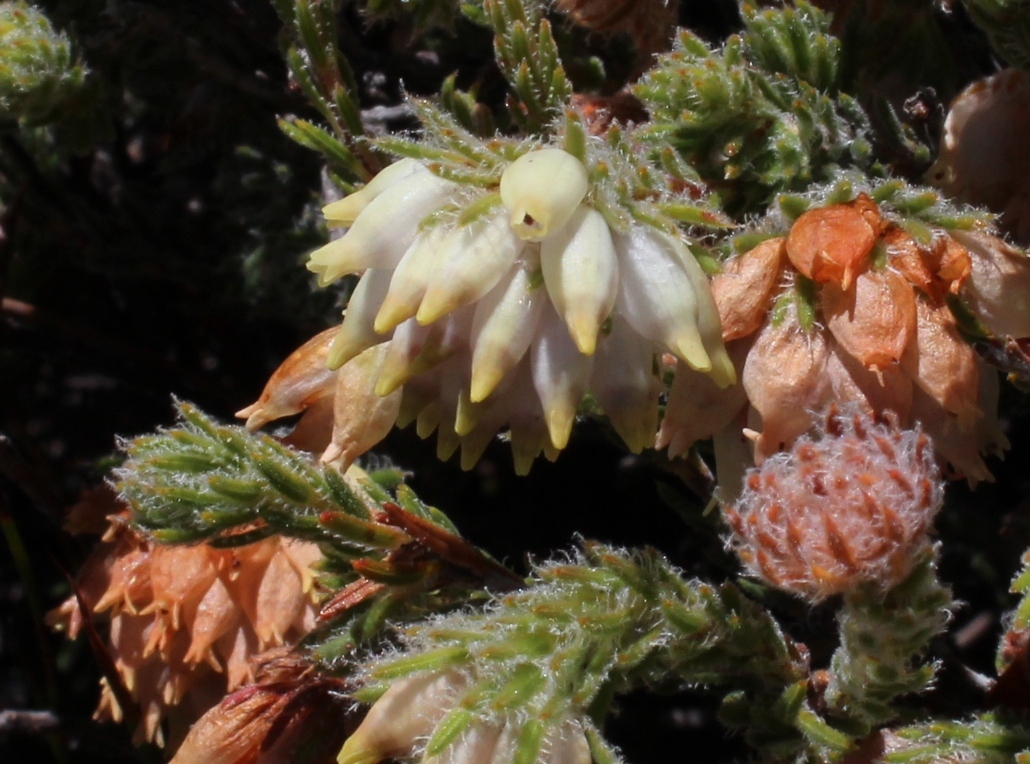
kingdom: Plantae
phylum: Tracheophyta
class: Magnoliopsida
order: Ericales
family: Ericaceae
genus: Erica
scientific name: Erica maderi
